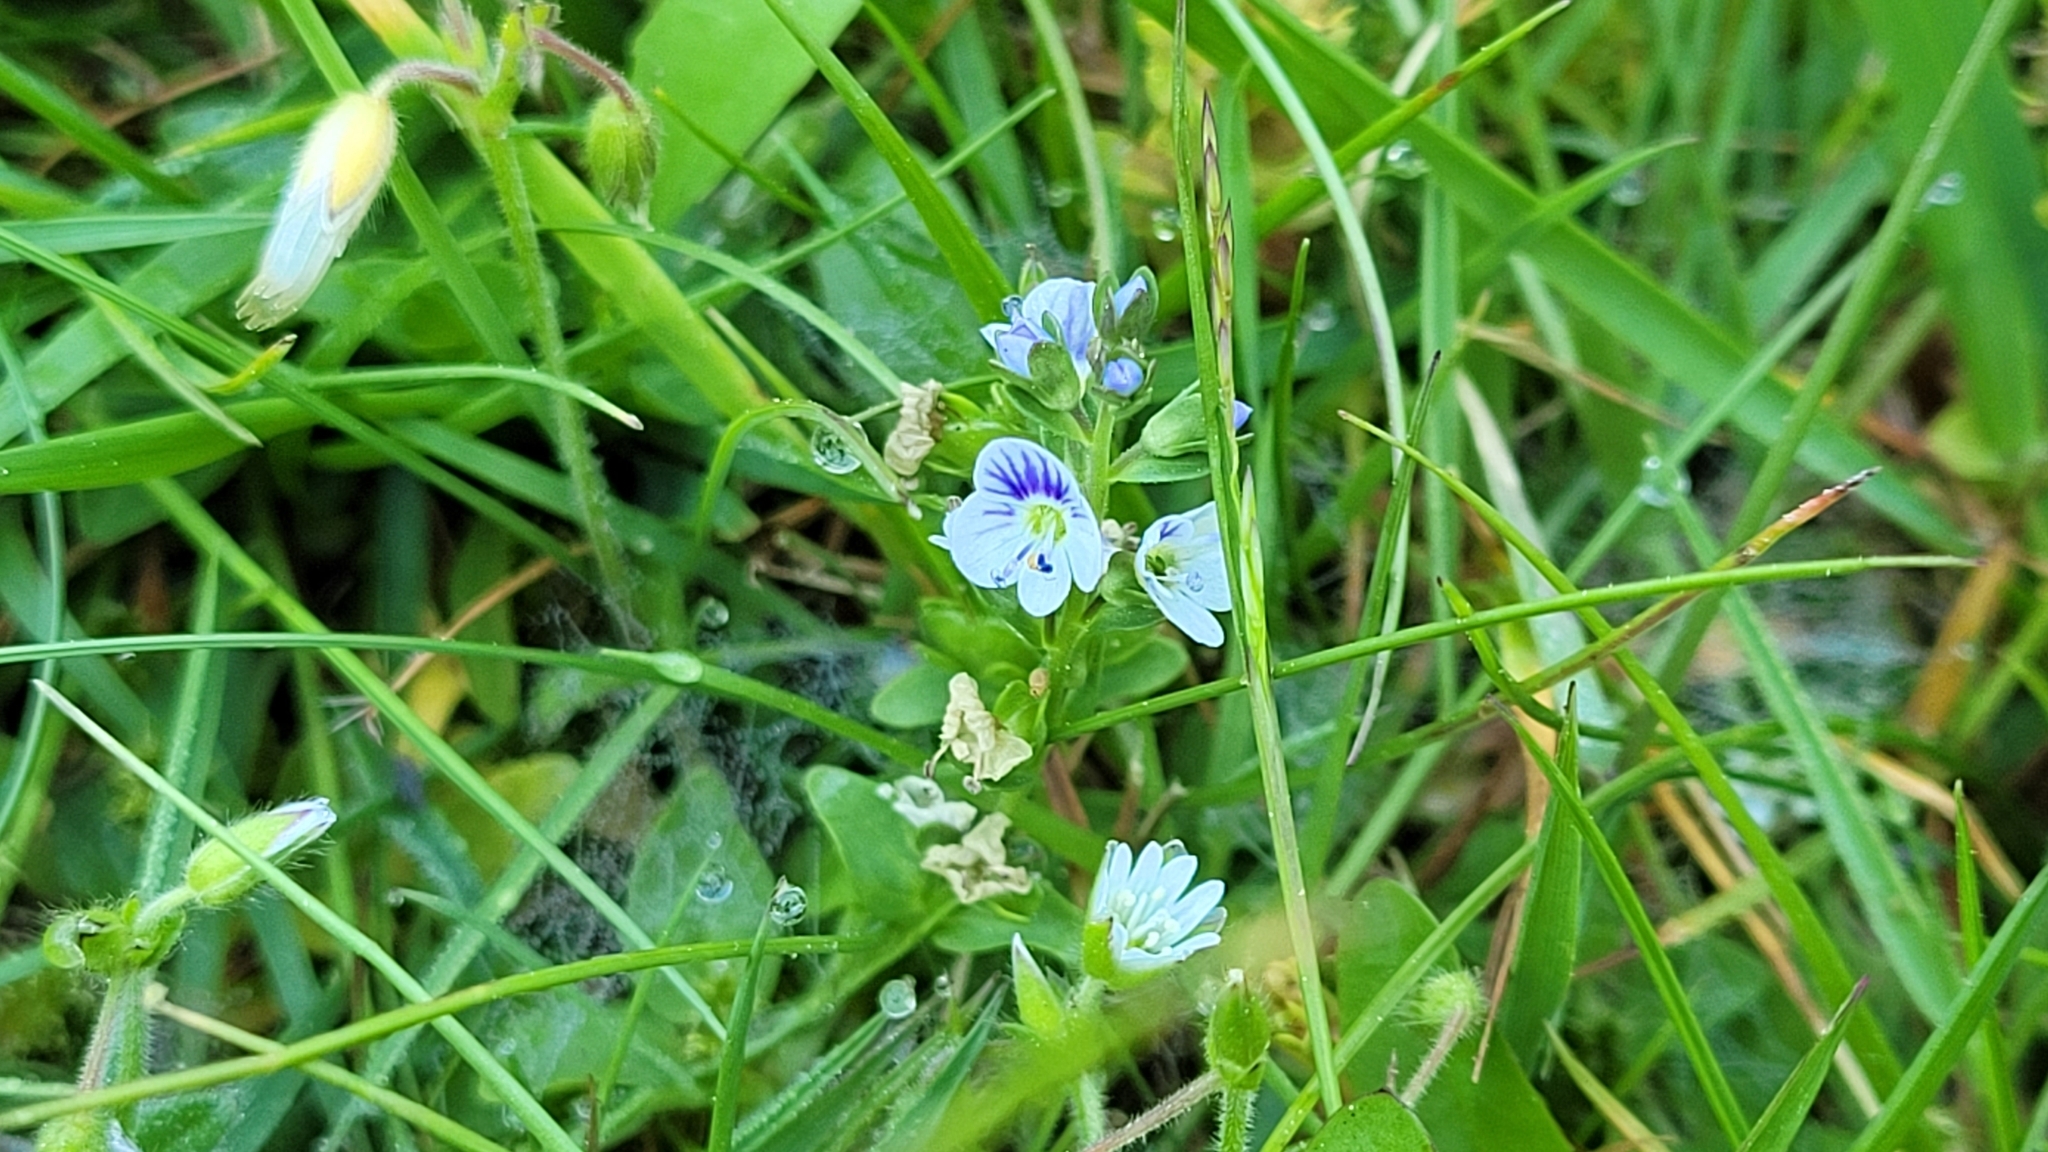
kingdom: Plantae
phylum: Tracheophyta
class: Magnoliopsida
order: Lamiales
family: Plantaginaceae
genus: Veronica
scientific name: Veronica serpyllifolia
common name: Thyme-leaved speedwell
